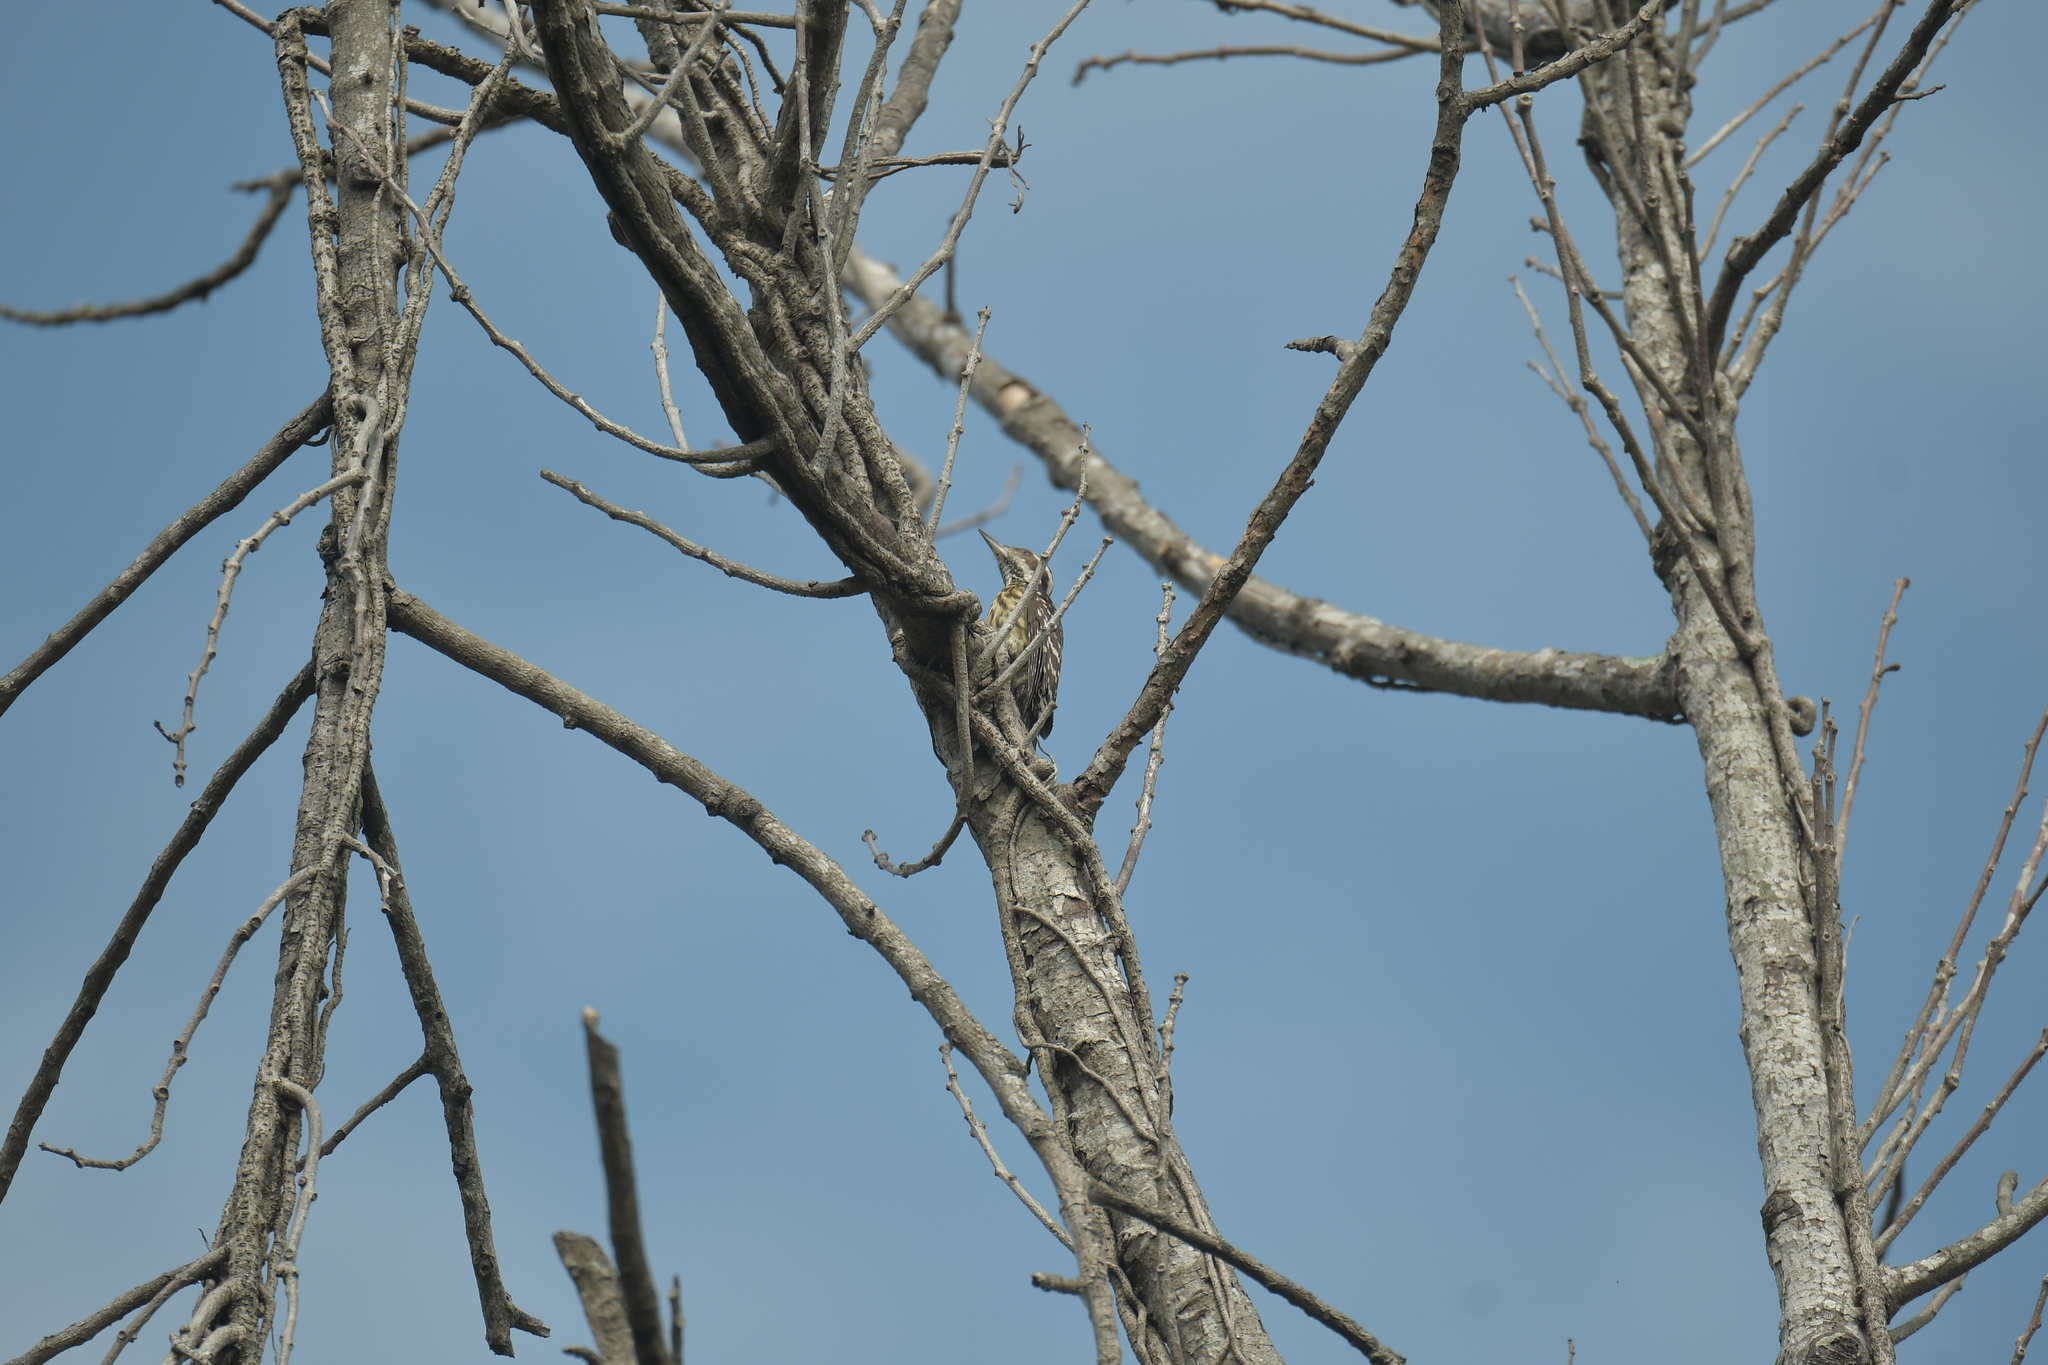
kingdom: Animalia
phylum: Chordata
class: Aves
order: Piciformes
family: Picidae
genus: Yungipicus
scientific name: Yungipicus maculatus
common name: Philippine pygmy woodpecker
